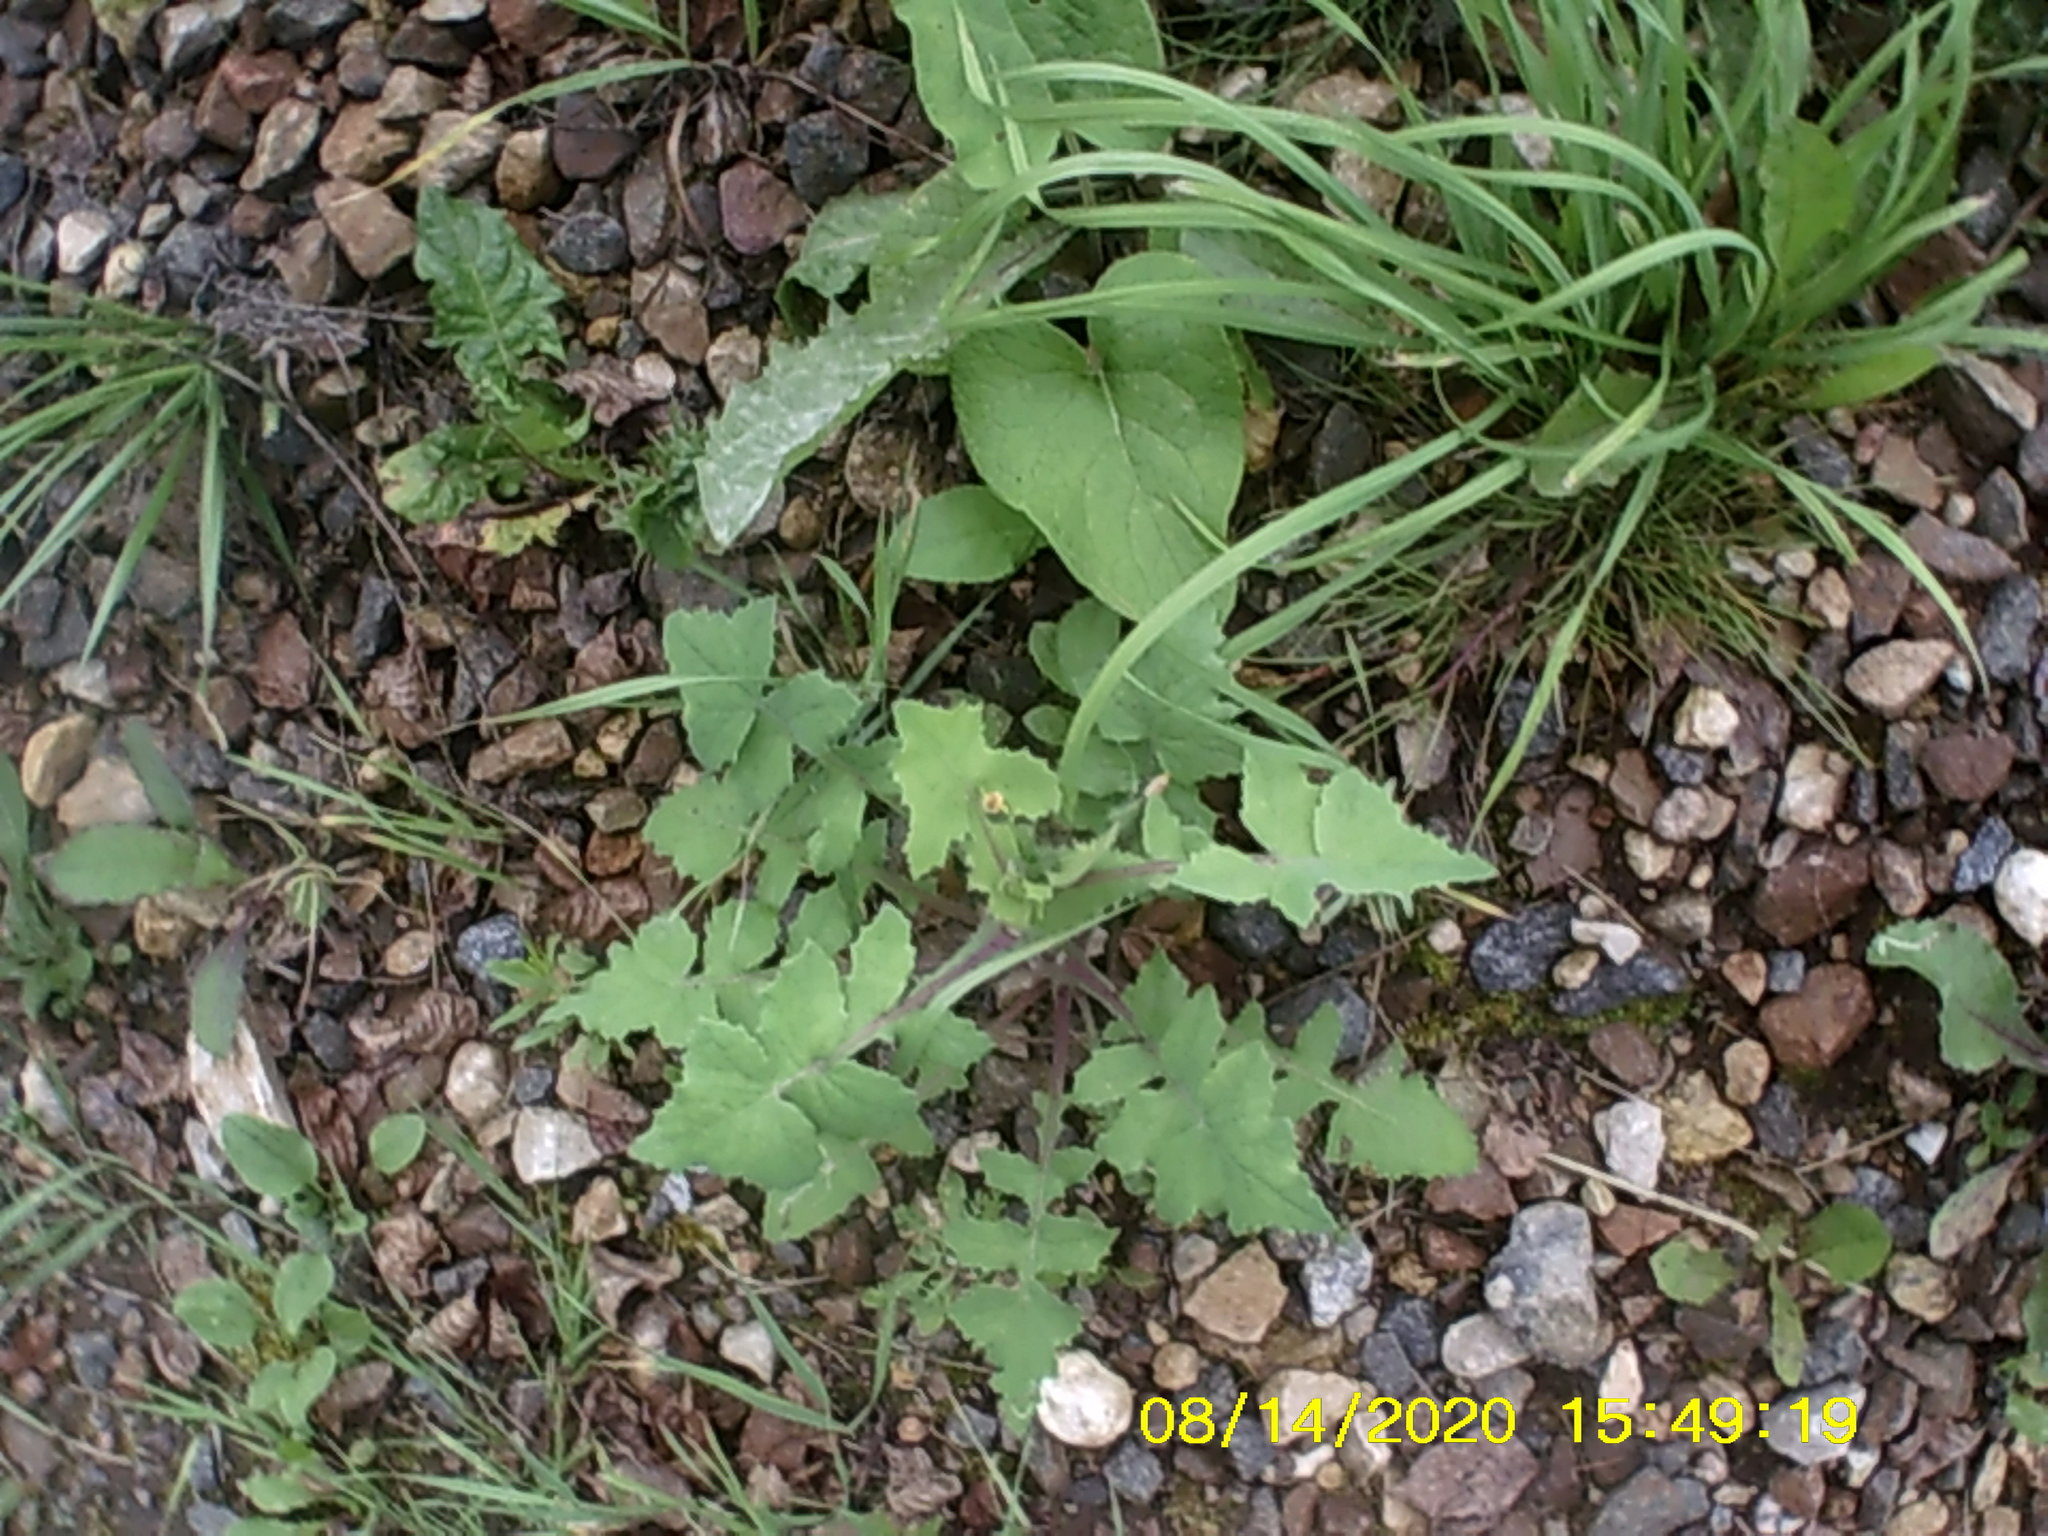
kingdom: Plantae
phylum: Tracheophyta
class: Magnoliopsida
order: Asterales
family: Asteraceae
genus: Sonchus
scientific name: Sonchus oleraceus
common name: Common sowthistle
